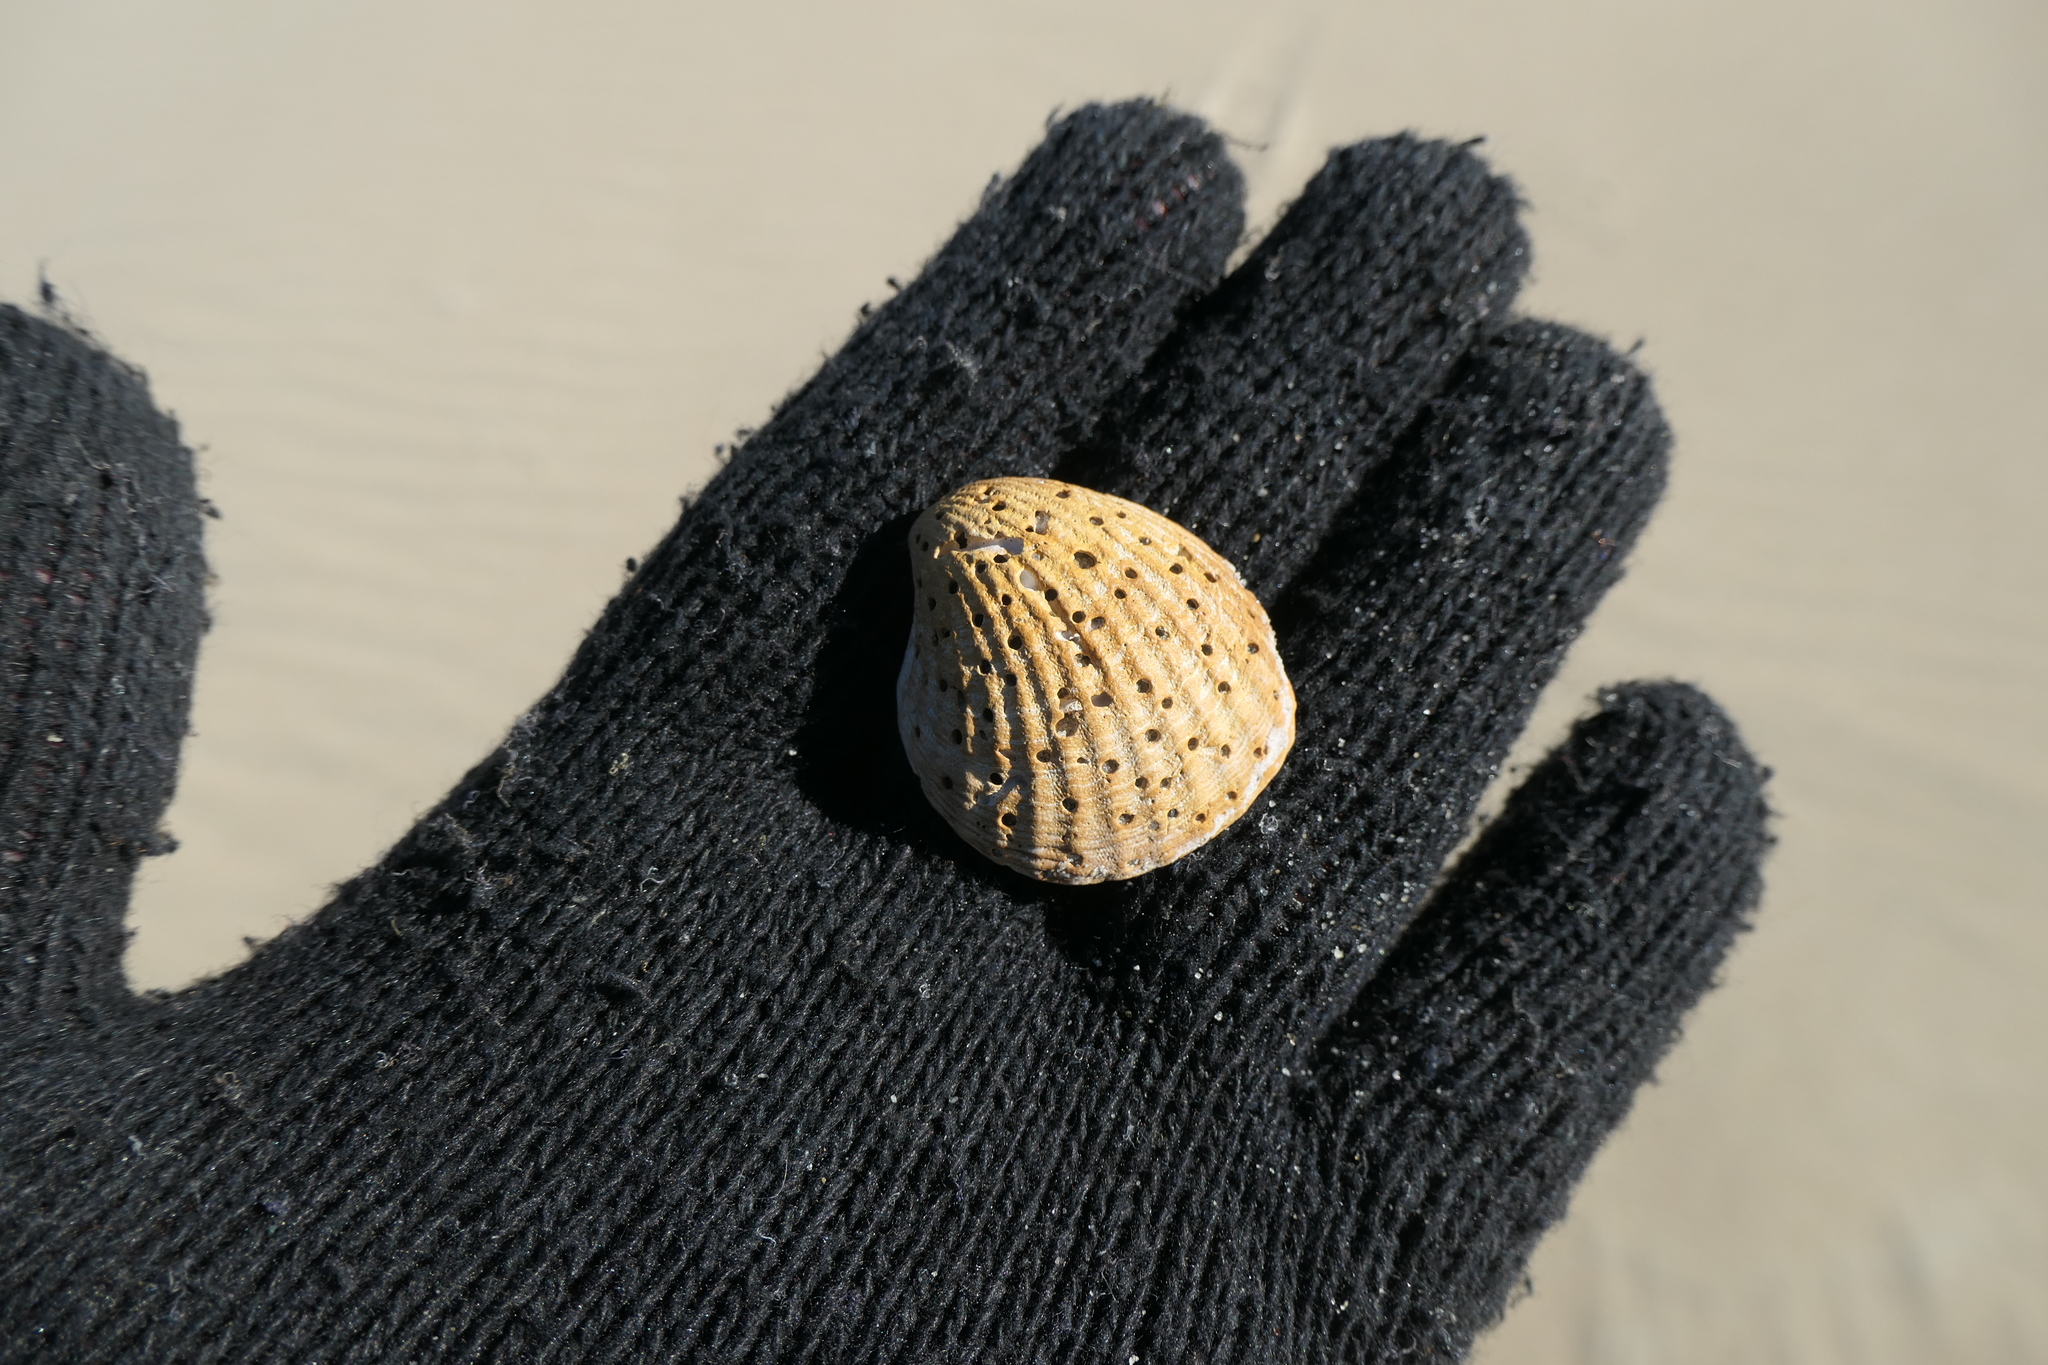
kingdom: Animalia
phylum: Mollusca
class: Bivalvia
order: Carditida
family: Carditidae
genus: Cyclocardia
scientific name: Cyclocardia borealis
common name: Northern cyclocardia
